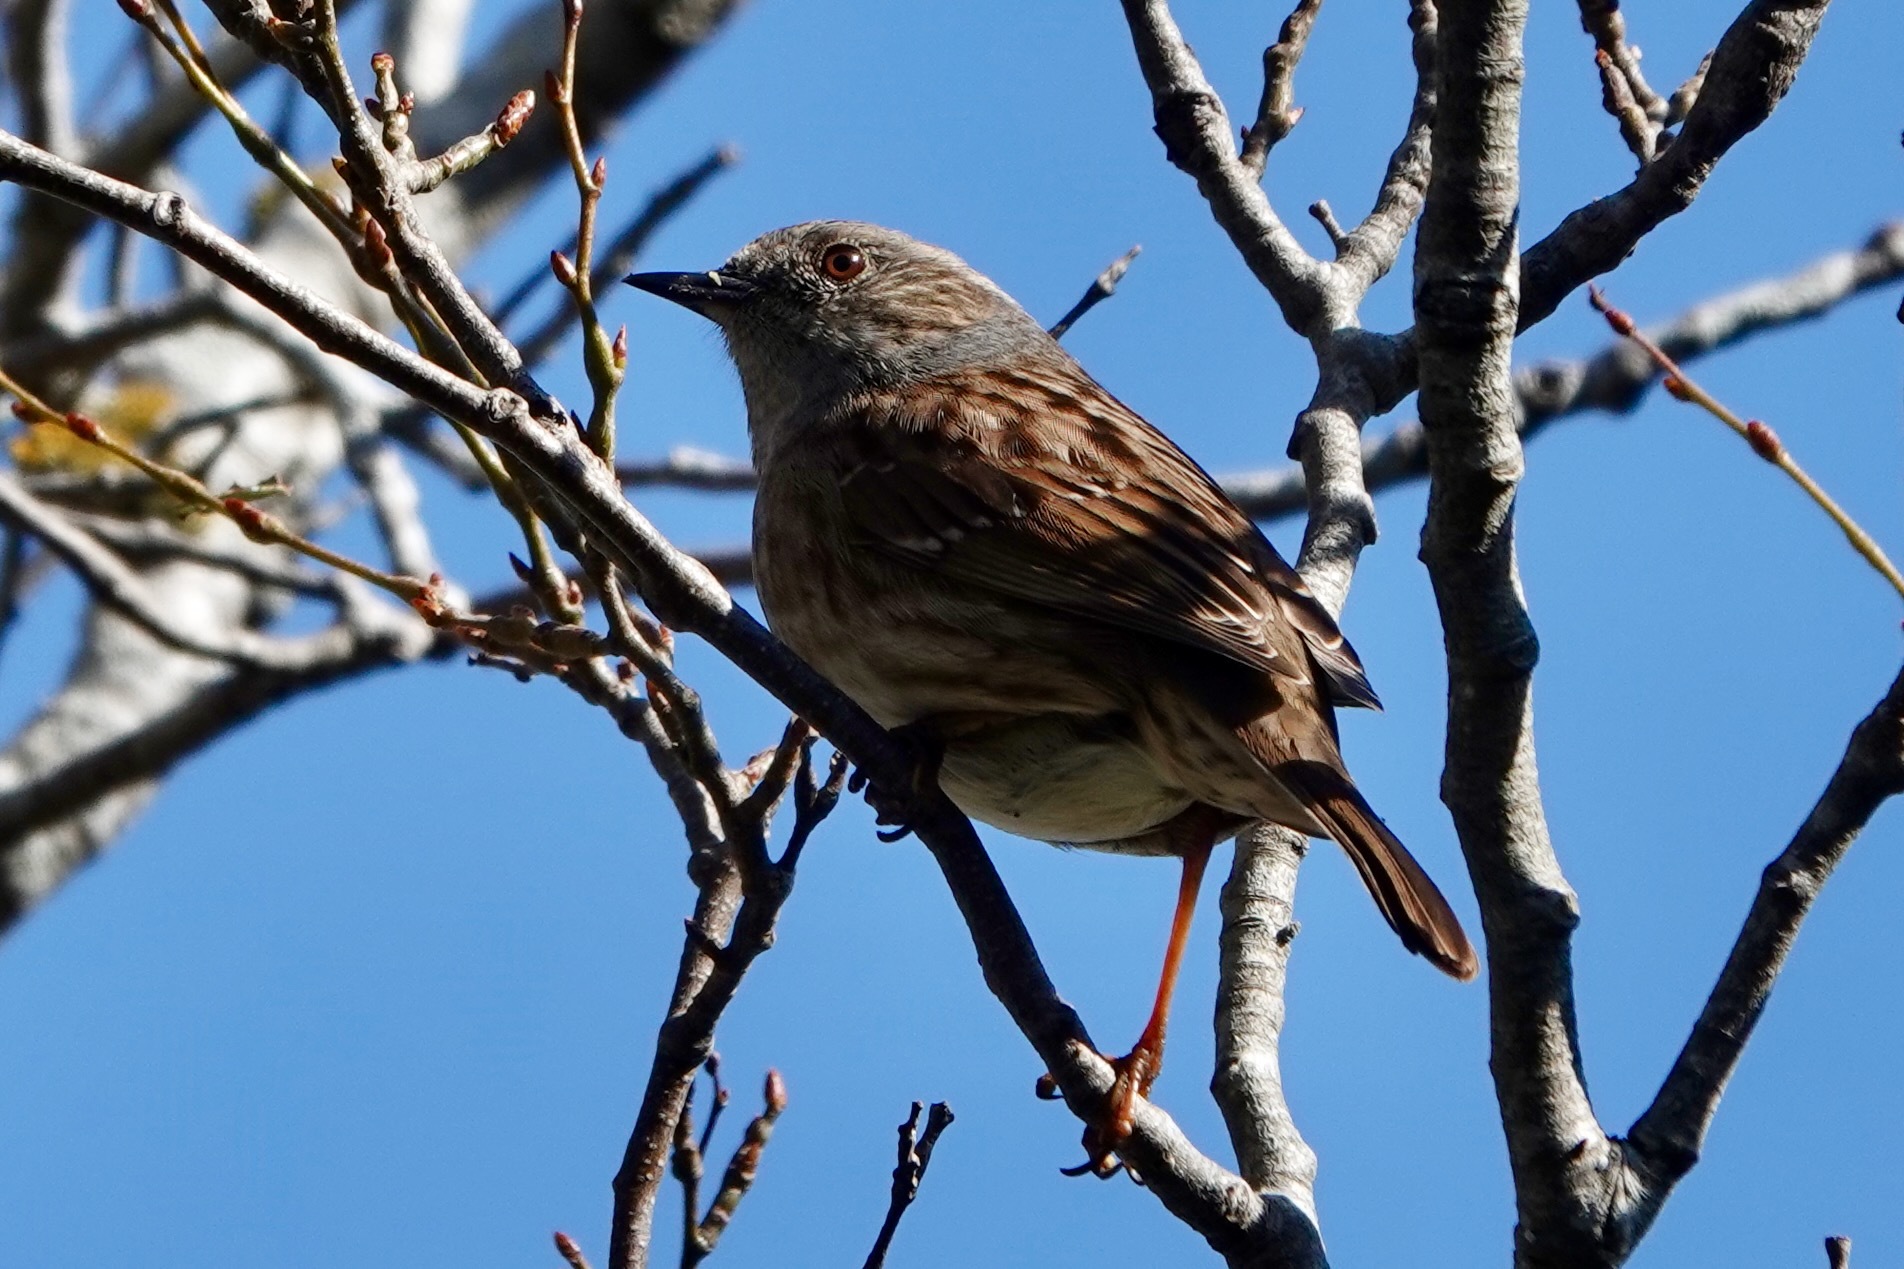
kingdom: Animalia
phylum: Chordata
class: Aves
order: Passeriformes
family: Prunellidae
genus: Prunella
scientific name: Prunella modularis
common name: Dunnock
